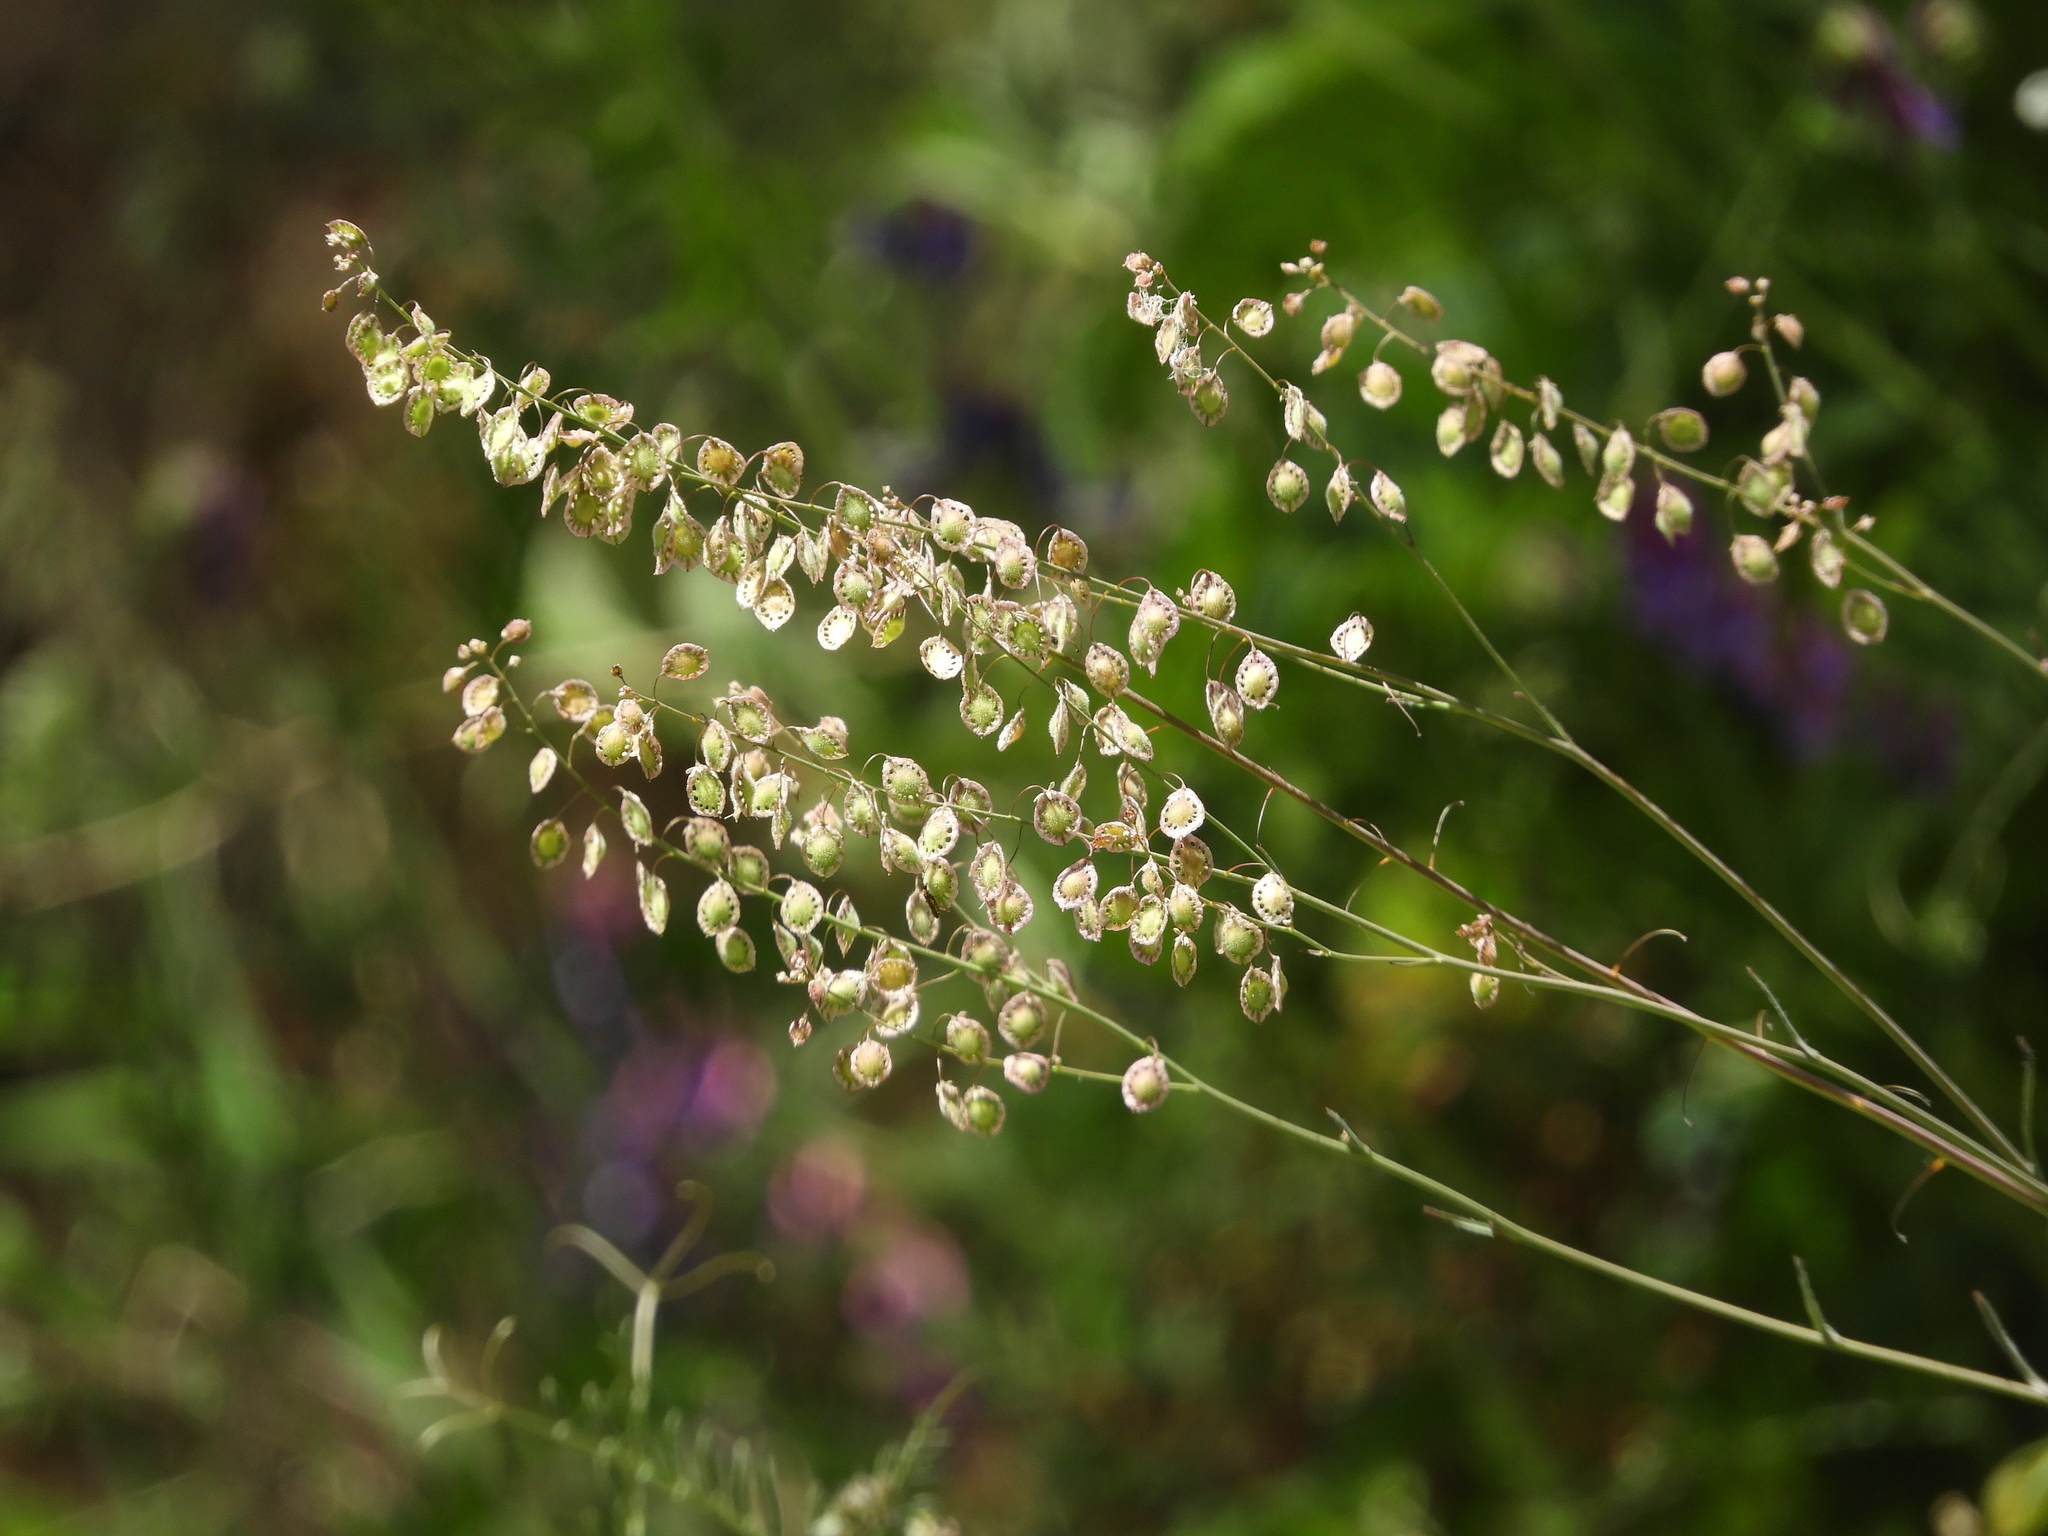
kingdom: Plantae
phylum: Tracheophyta
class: Magnoliopsida
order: Brassicales
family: Brassicaceae
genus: Thysanocarpus
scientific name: Thysanocarpus curvipes
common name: Sand fringepod
